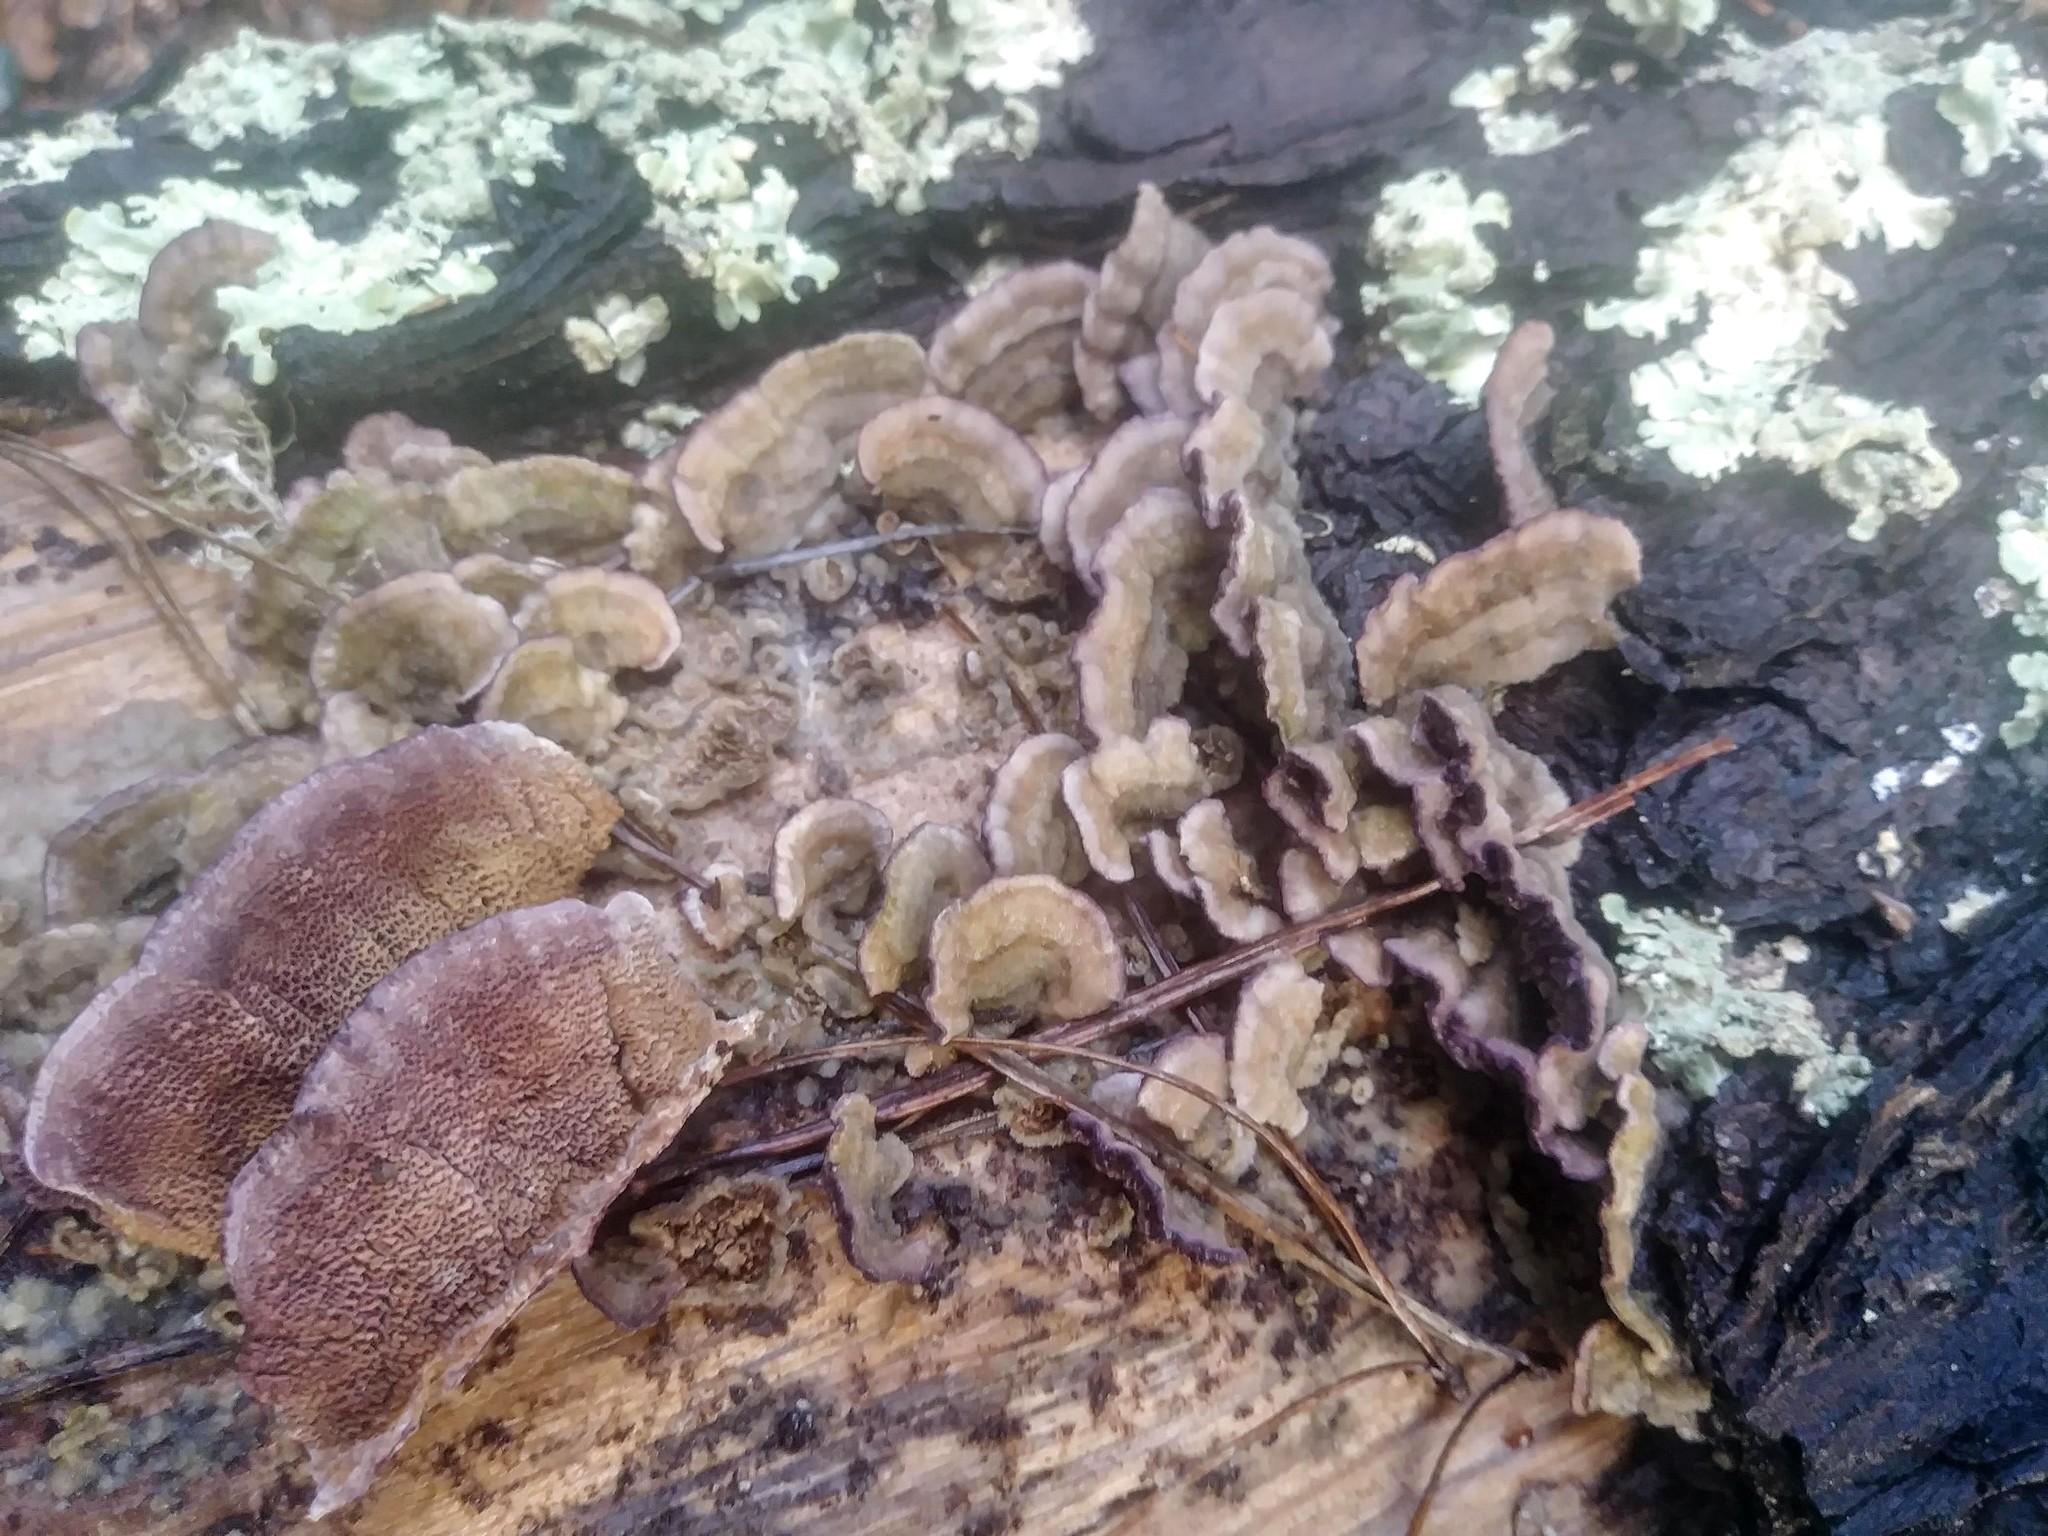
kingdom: Fungi
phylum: Basidiomycota
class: Agaricomycetes
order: Hymenochaetales
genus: Trichaptum
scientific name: Trichaptum abietinum
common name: Purplepore bracket
